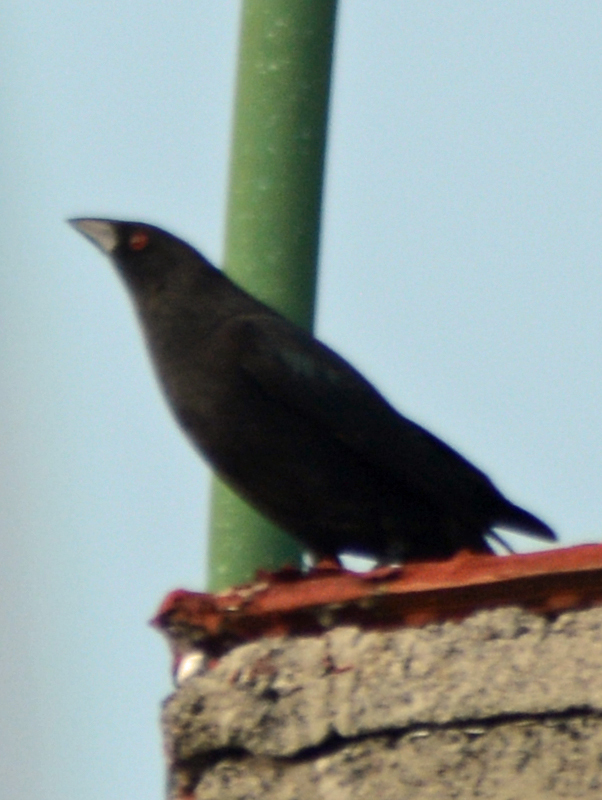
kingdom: Animalia
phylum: Chordata
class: Aves
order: Passeriformes
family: Icteridae
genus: Molothrus
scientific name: Molothrus aeneus
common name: Bronzed cowbird
